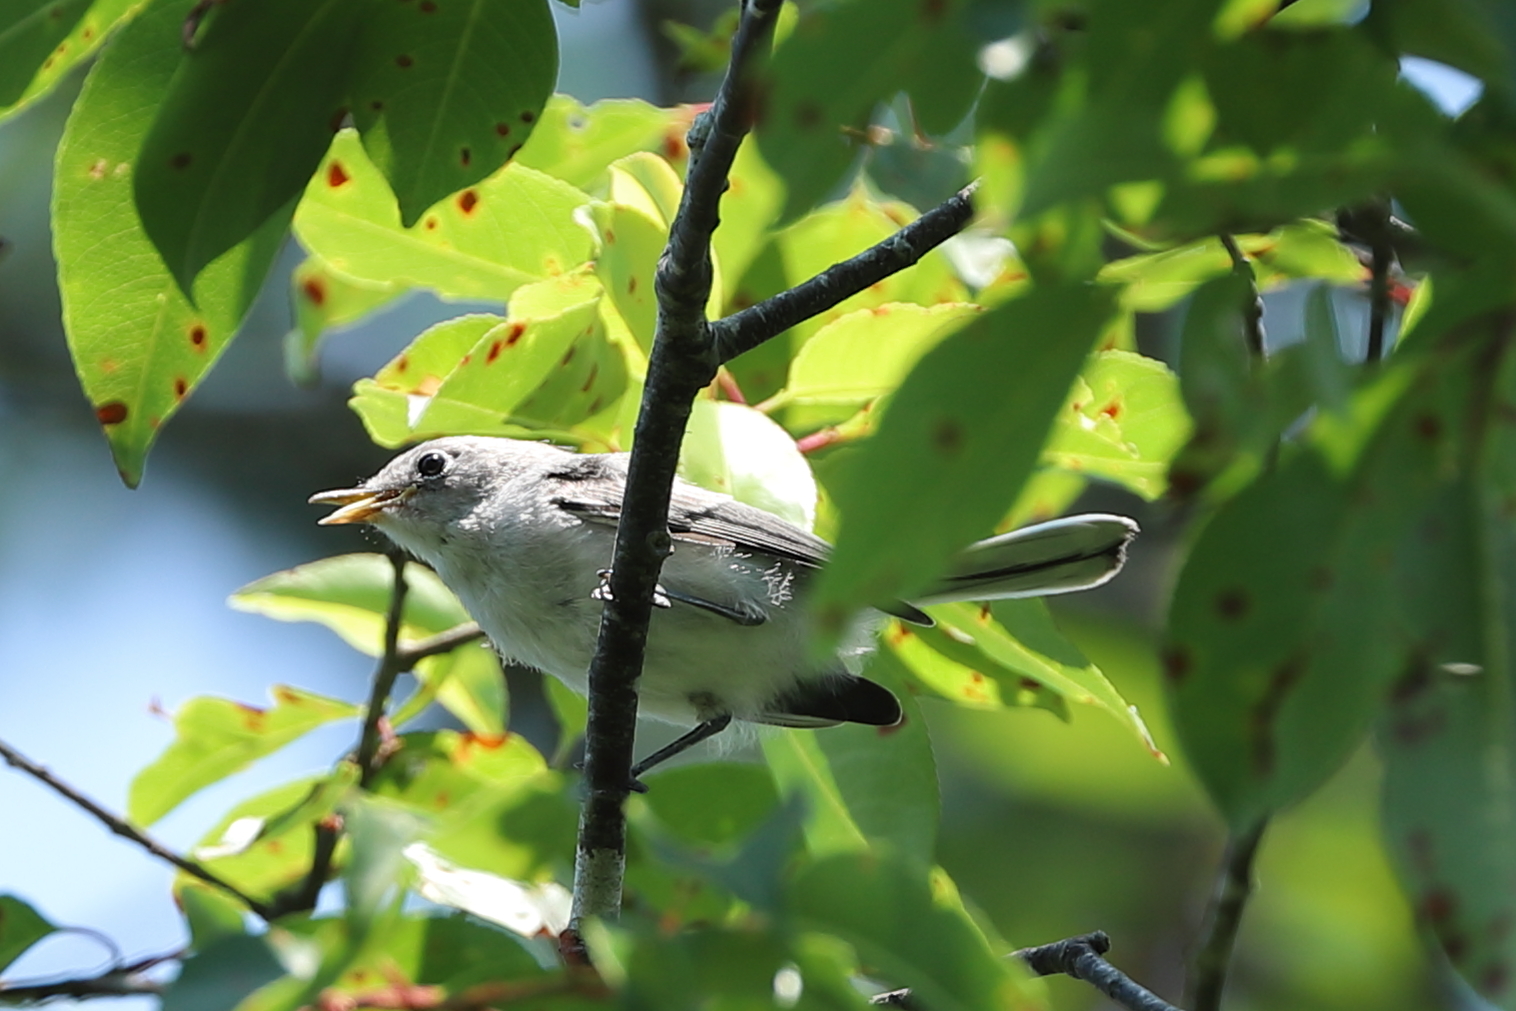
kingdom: Animalia
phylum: Chordata
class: Aves
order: Passeriformes
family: Polioptilidae
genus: Polioptila
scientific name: Polioptila caerulea
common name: Blue-gray gnatcatcher
